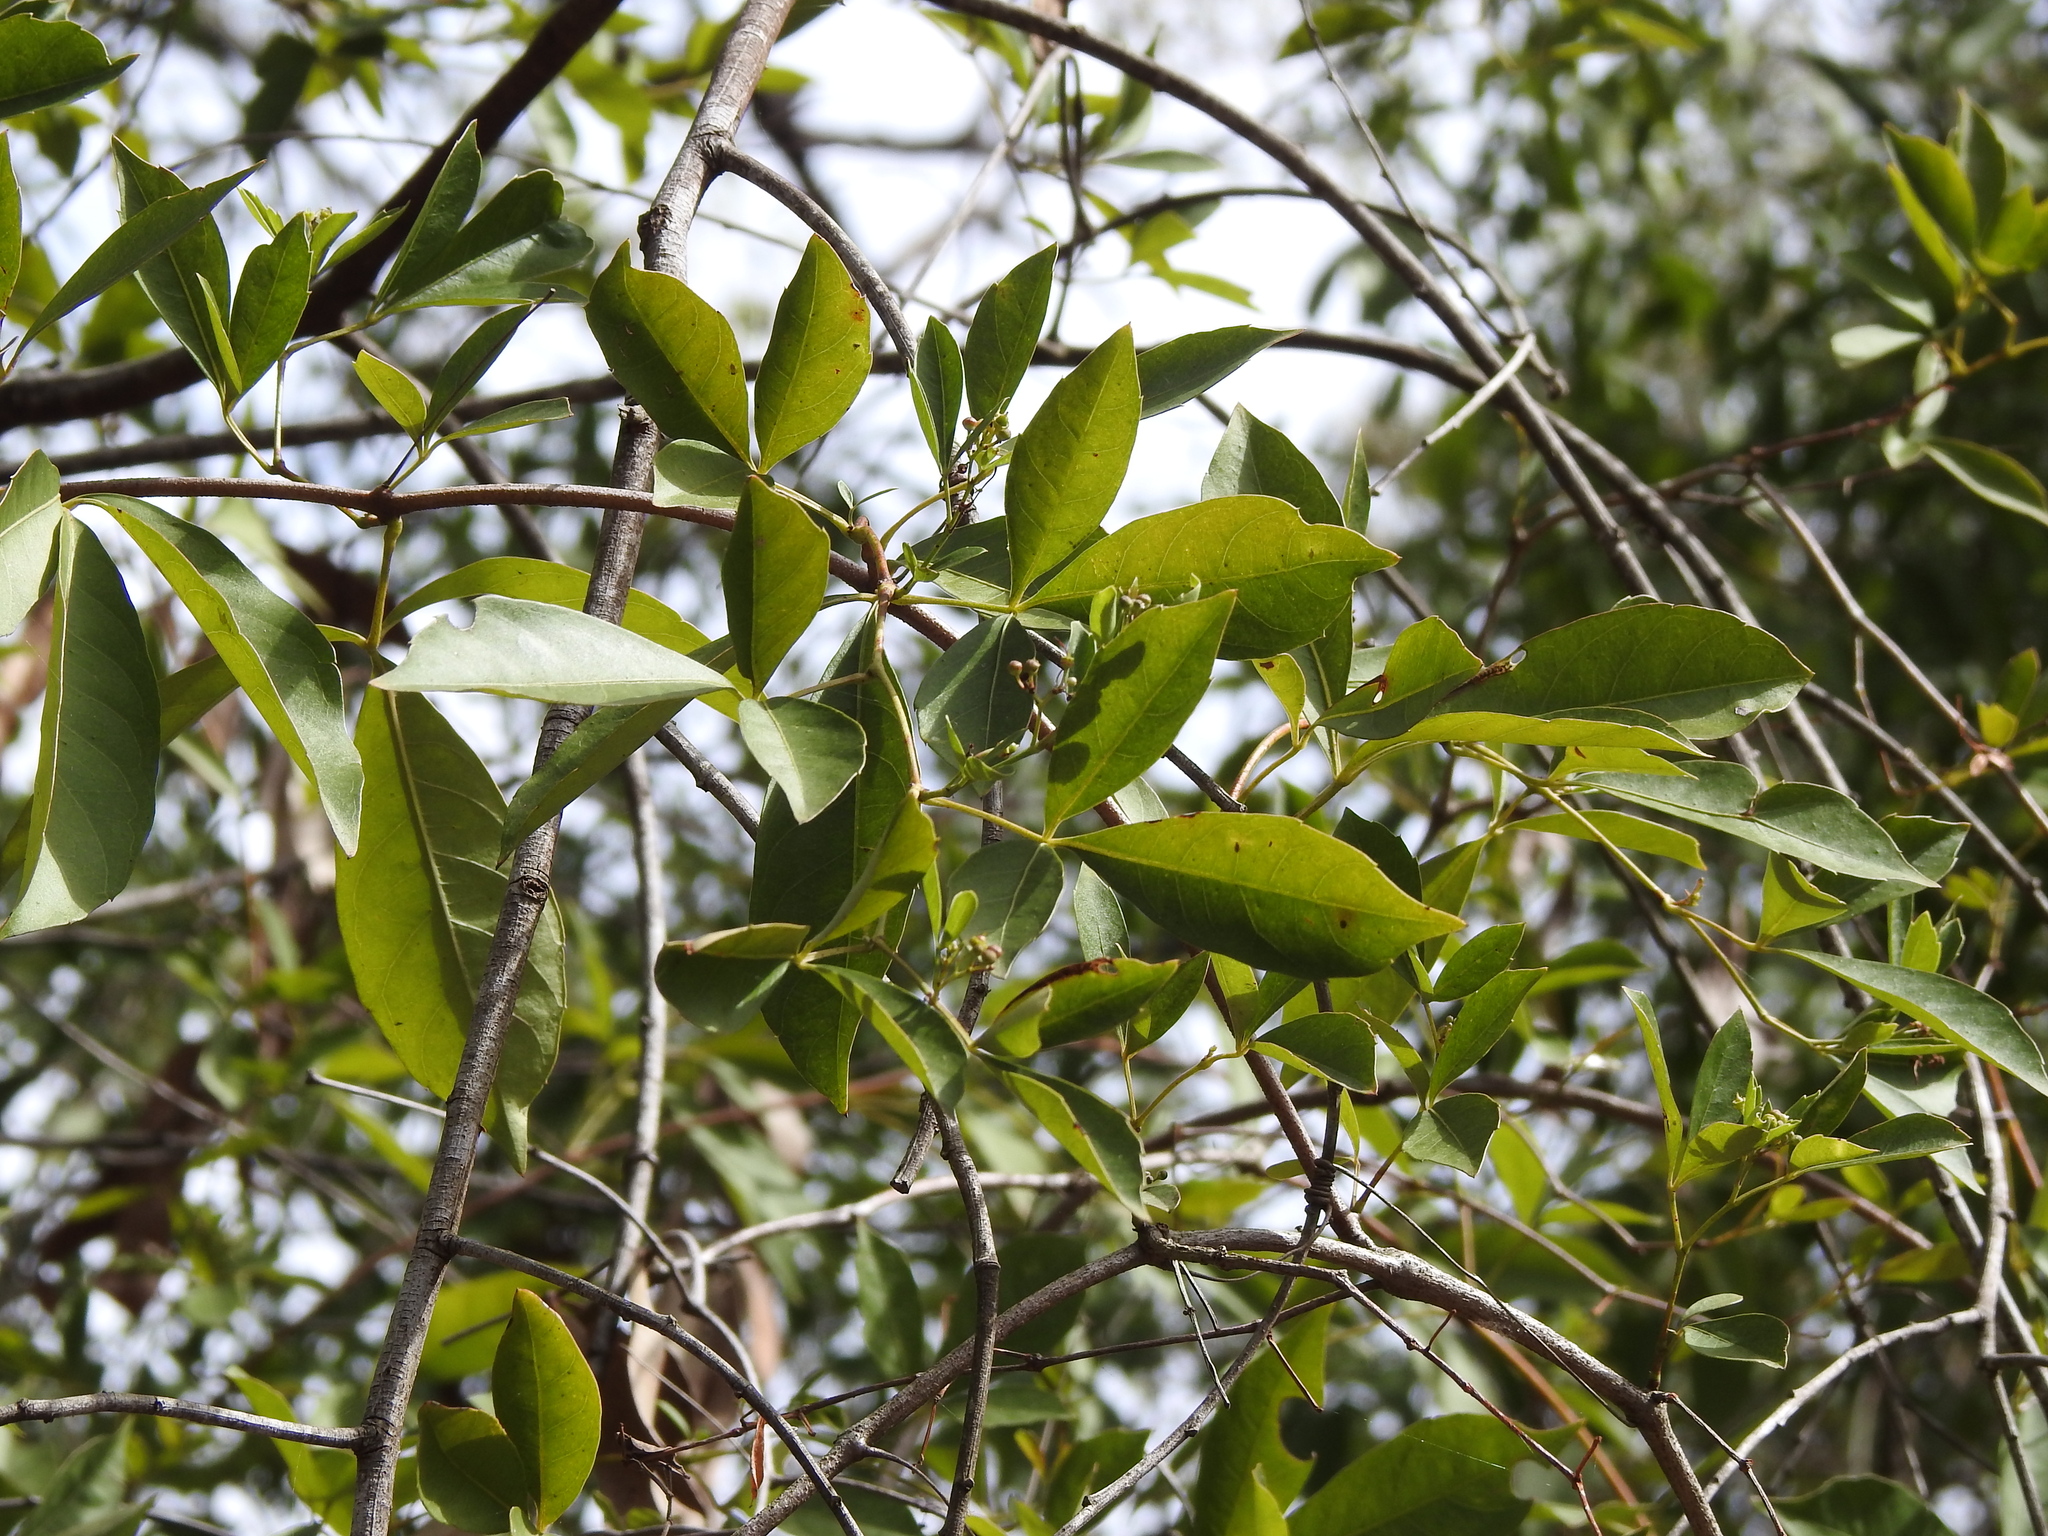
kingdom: Plantae
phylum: Tracheophyta
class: Magnoliopsida
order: Vitales
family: Vitaceae
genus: Clematicissus
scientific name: Clematicissus opaca
